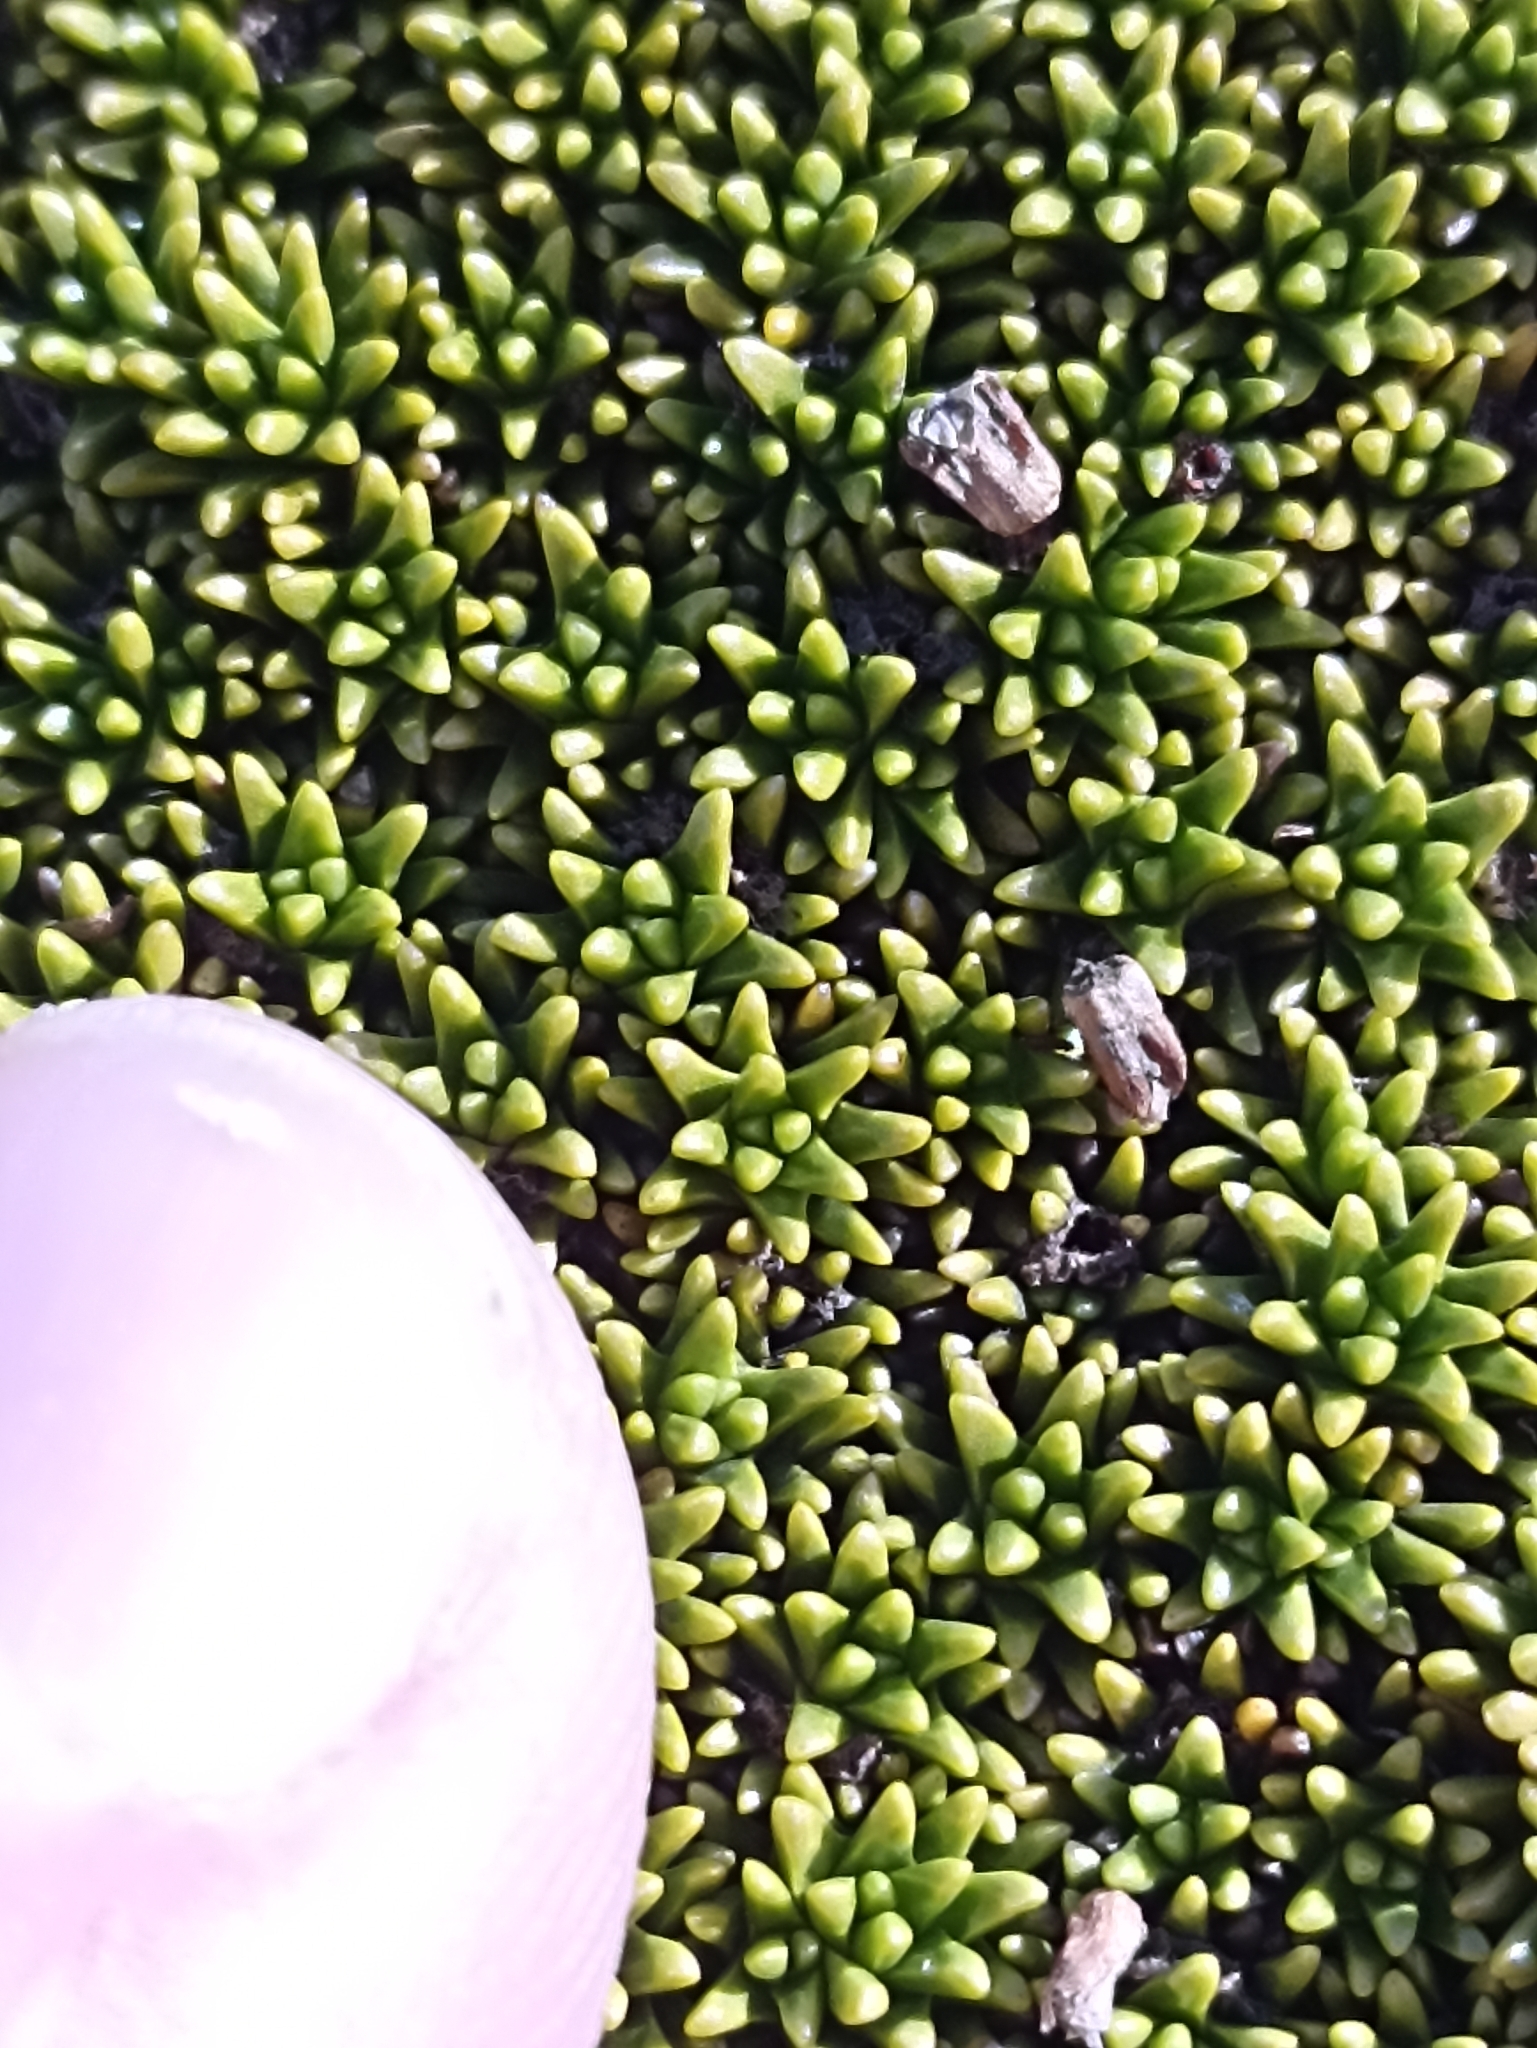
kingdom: Plantae
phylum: Tracheophyta
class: Magnoliopsida
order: Asterales
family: Stylidiaceae
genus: Phyllachne
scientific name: Phyllachne colensoi
